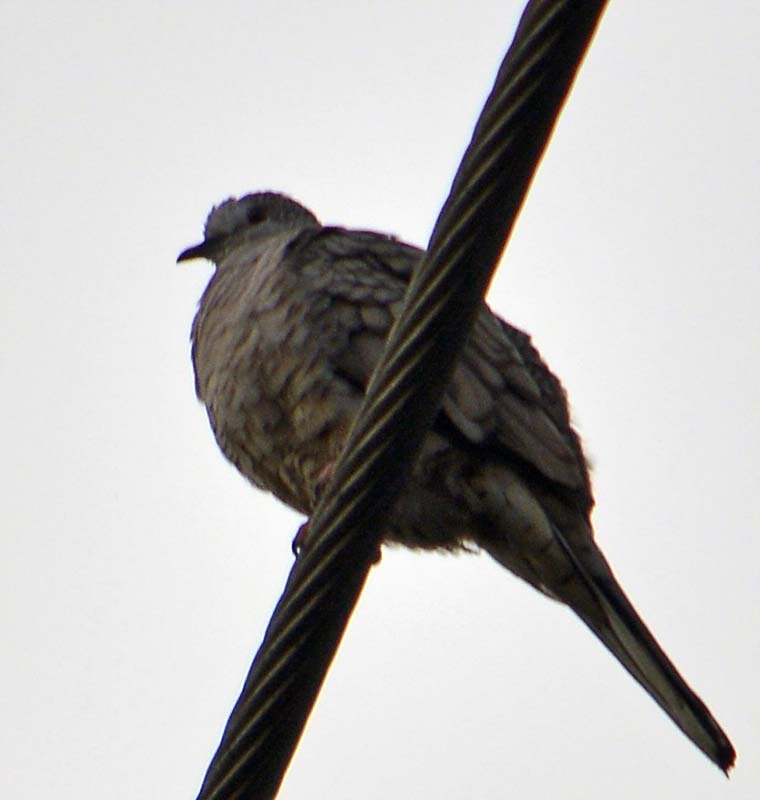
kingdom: Animalia
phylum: Chordata
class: Aves
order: Columbiformes
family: Columbidae
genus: Columbina
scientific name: Columbina inca
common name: Inca dove
